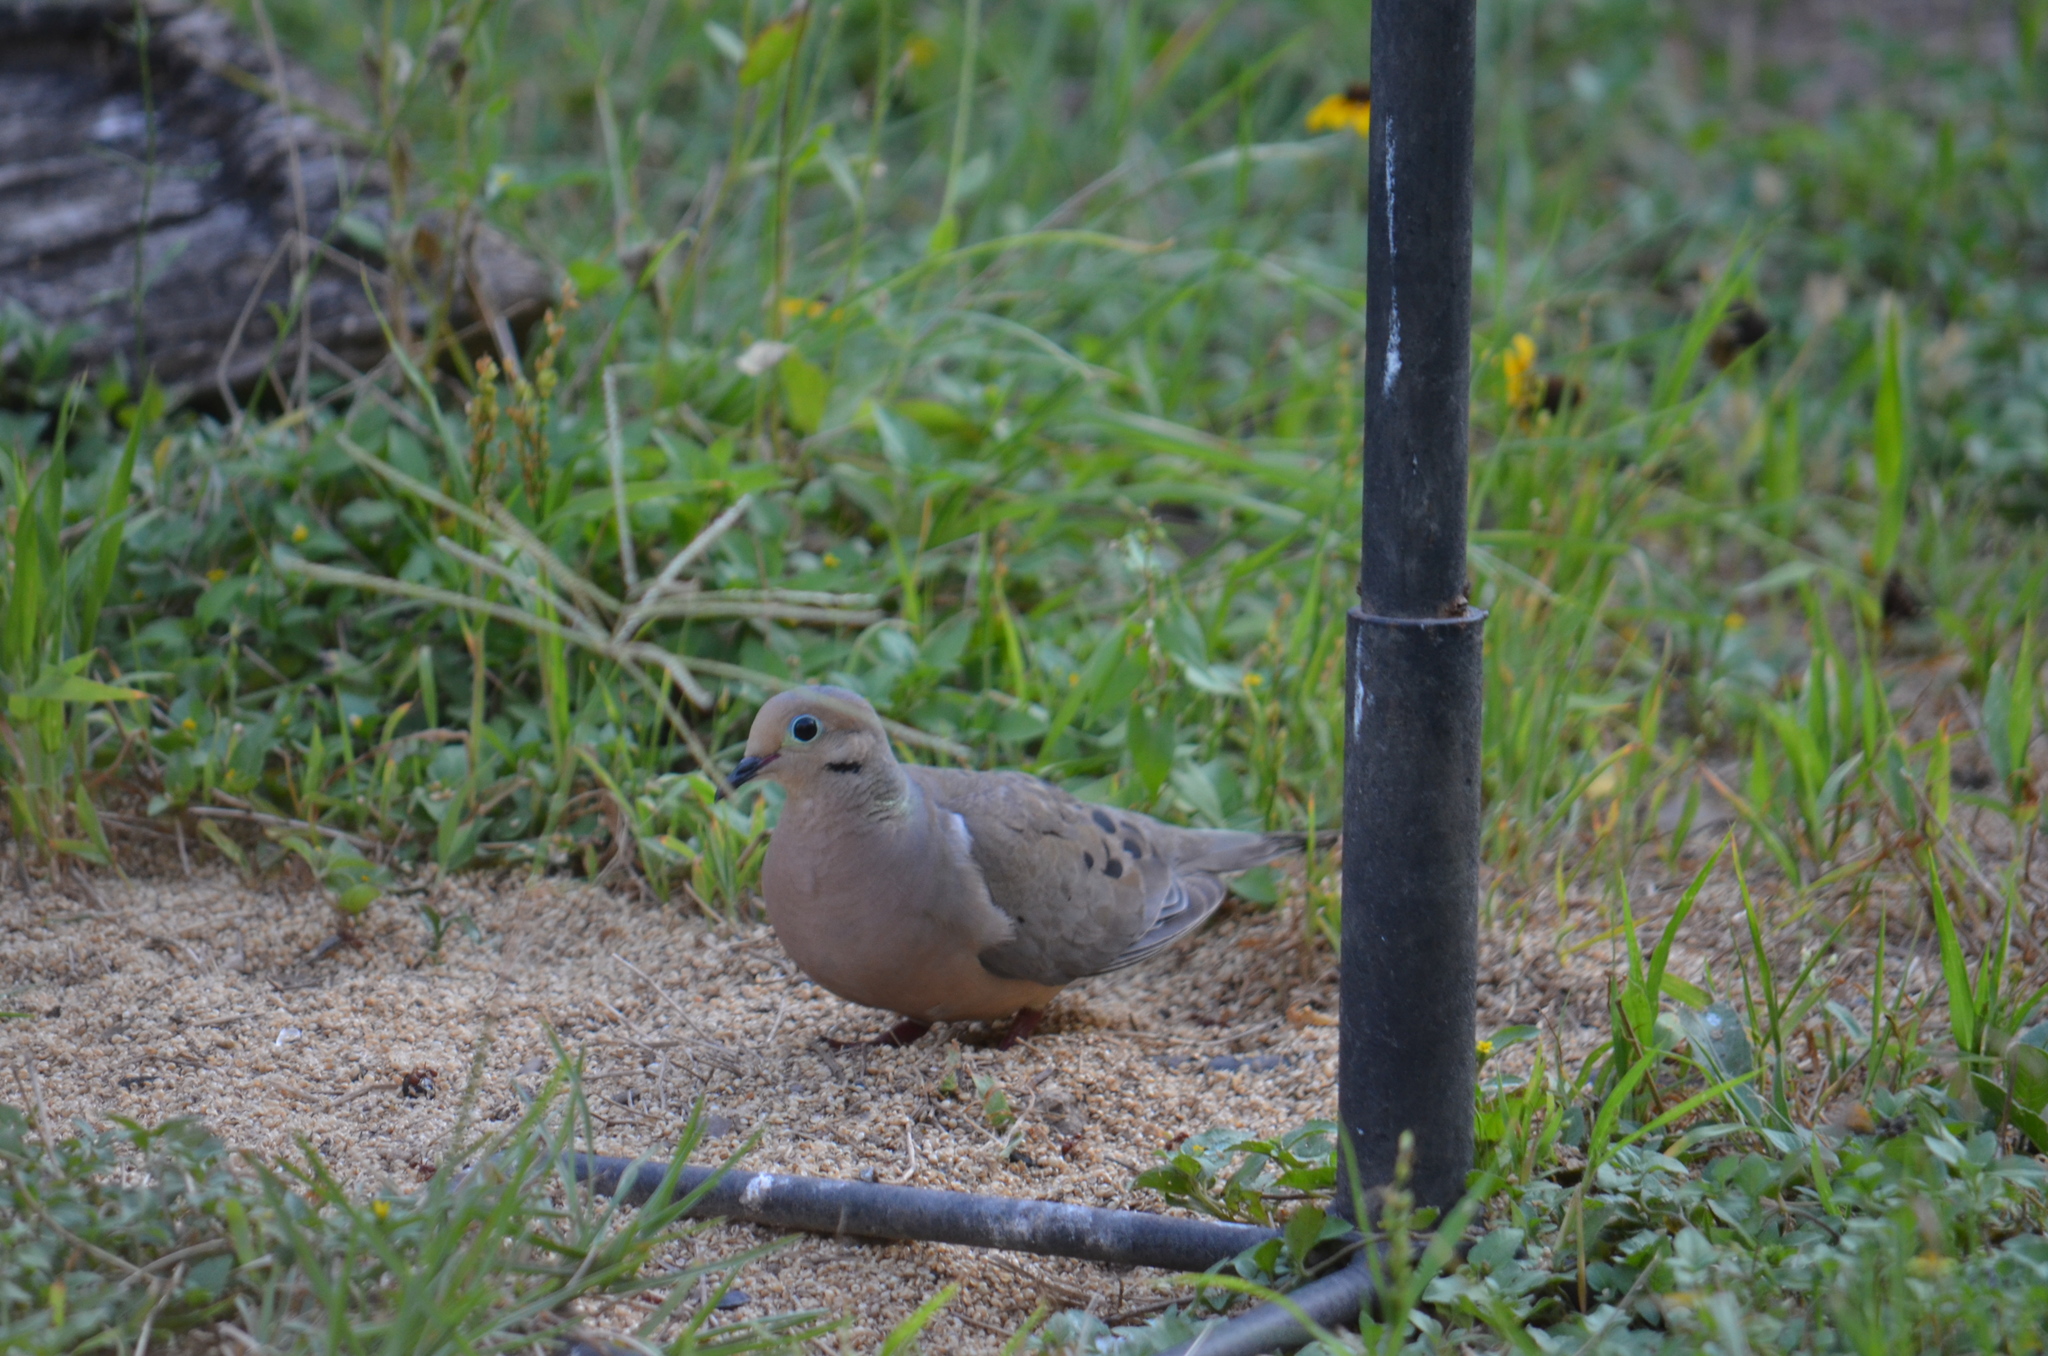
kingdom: Animalia
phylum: Chordata
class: Aves
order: Columbiformes
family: Columbidae
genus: Zenaida
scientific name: Zenaida macroura
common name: Mourning dove
